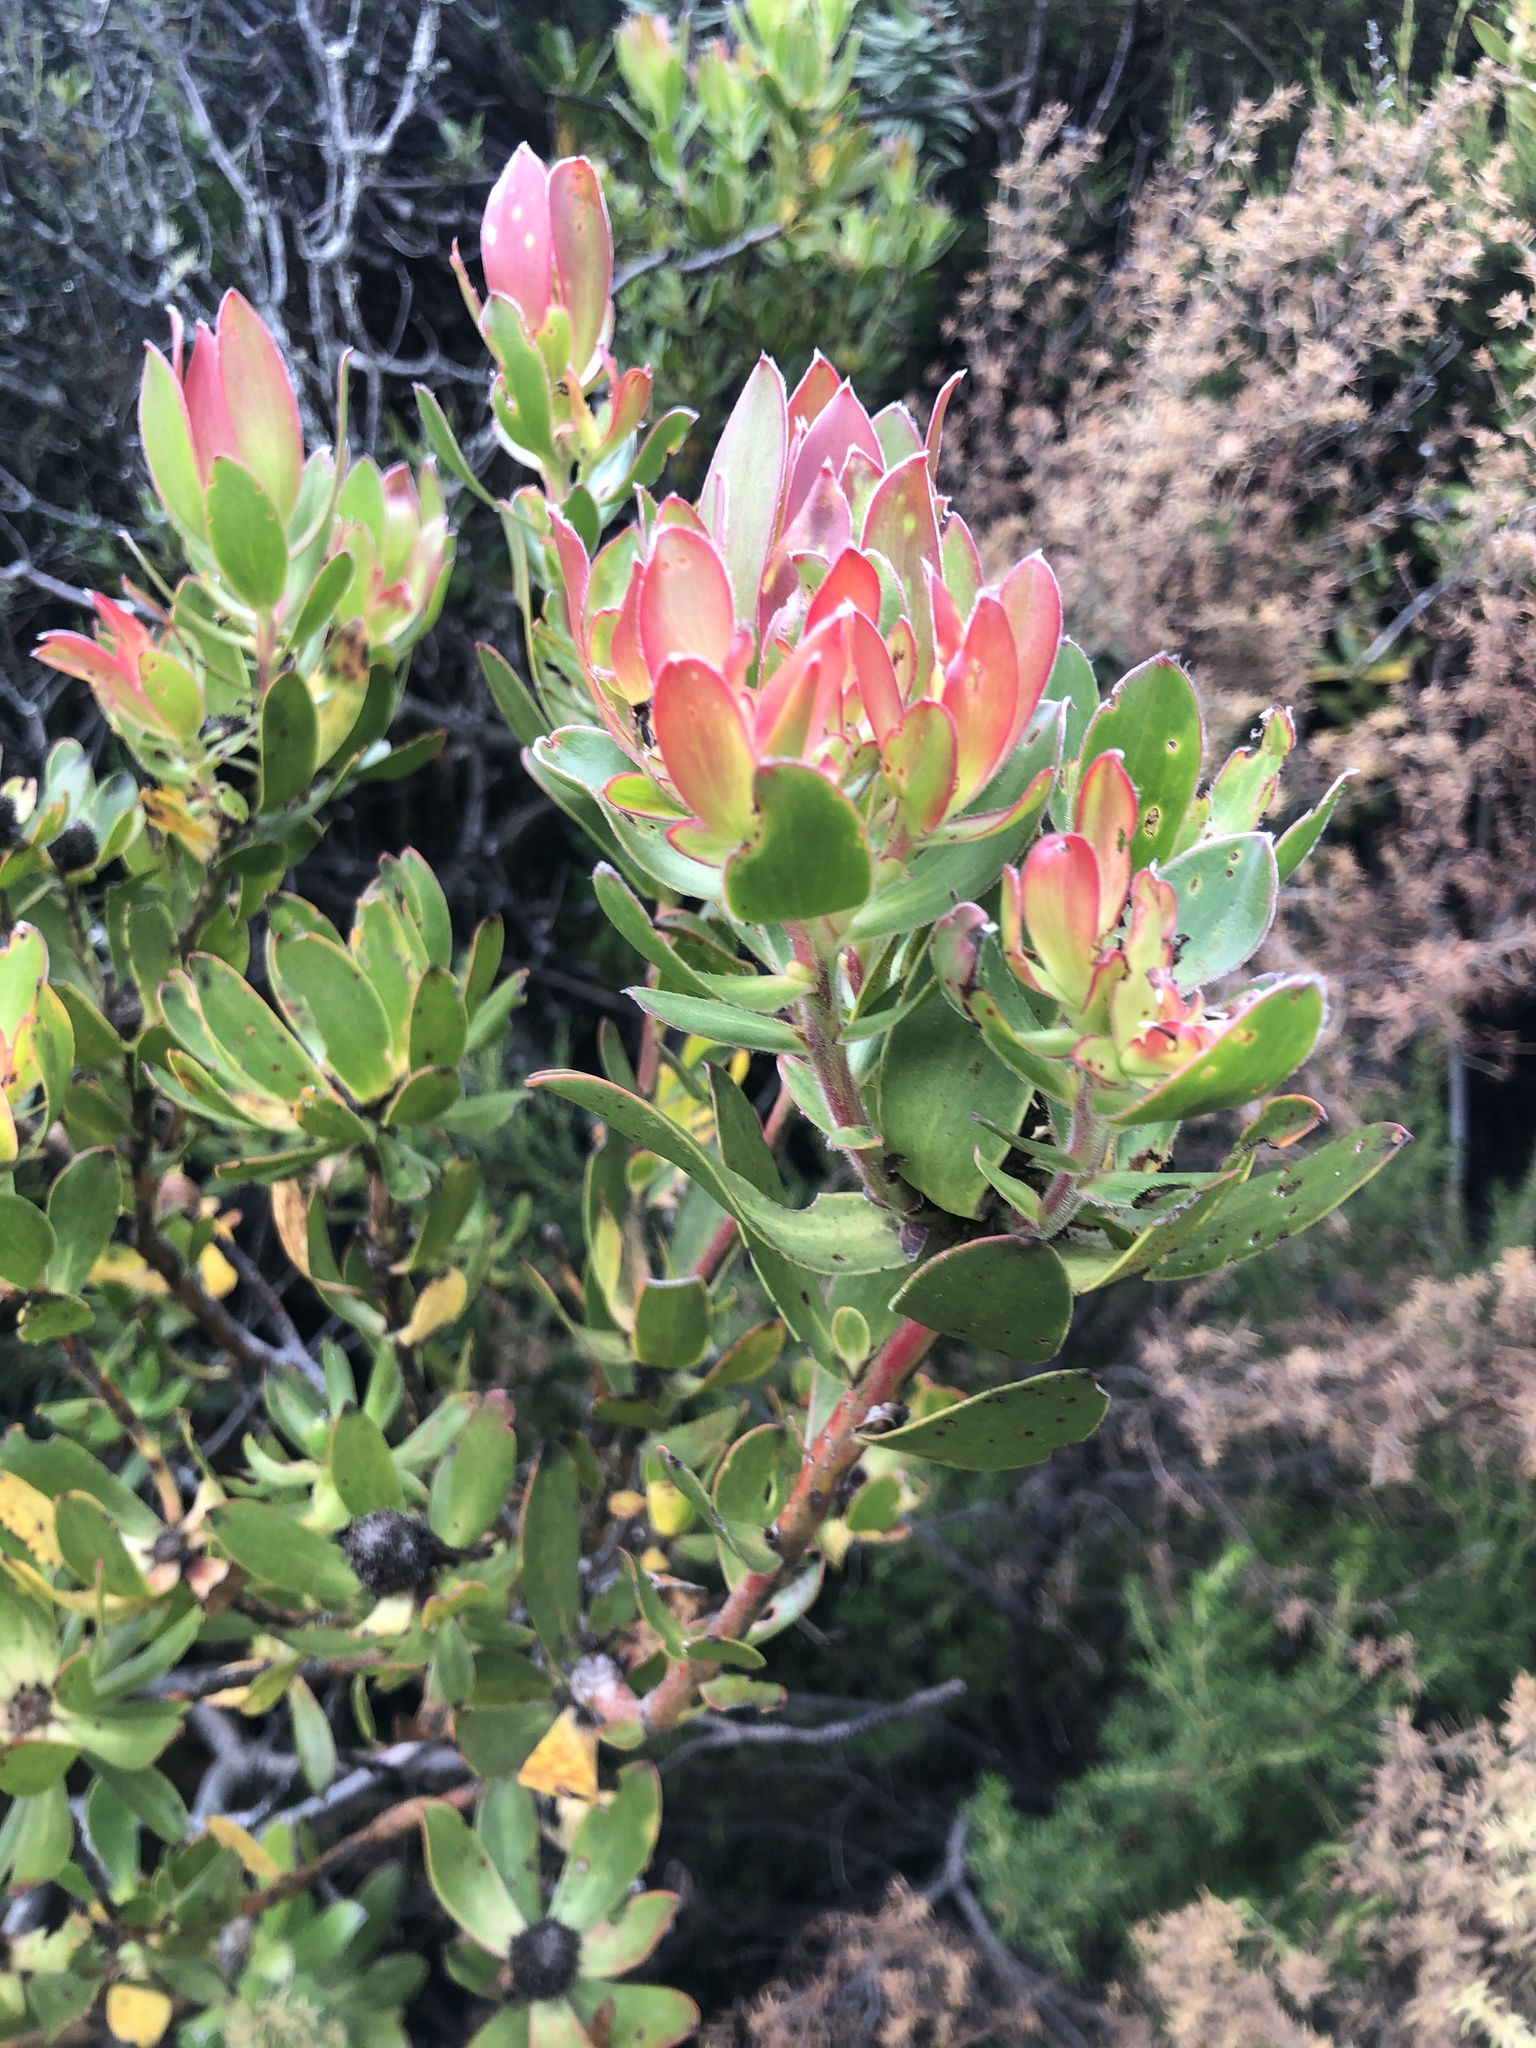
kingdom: Plantae
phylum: Tracheophyta
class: Magnoliopsida
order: Proteales
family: Proteaceae
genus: Leucadendron
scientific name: Leucadendron strobilinum
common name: Mountain rose
